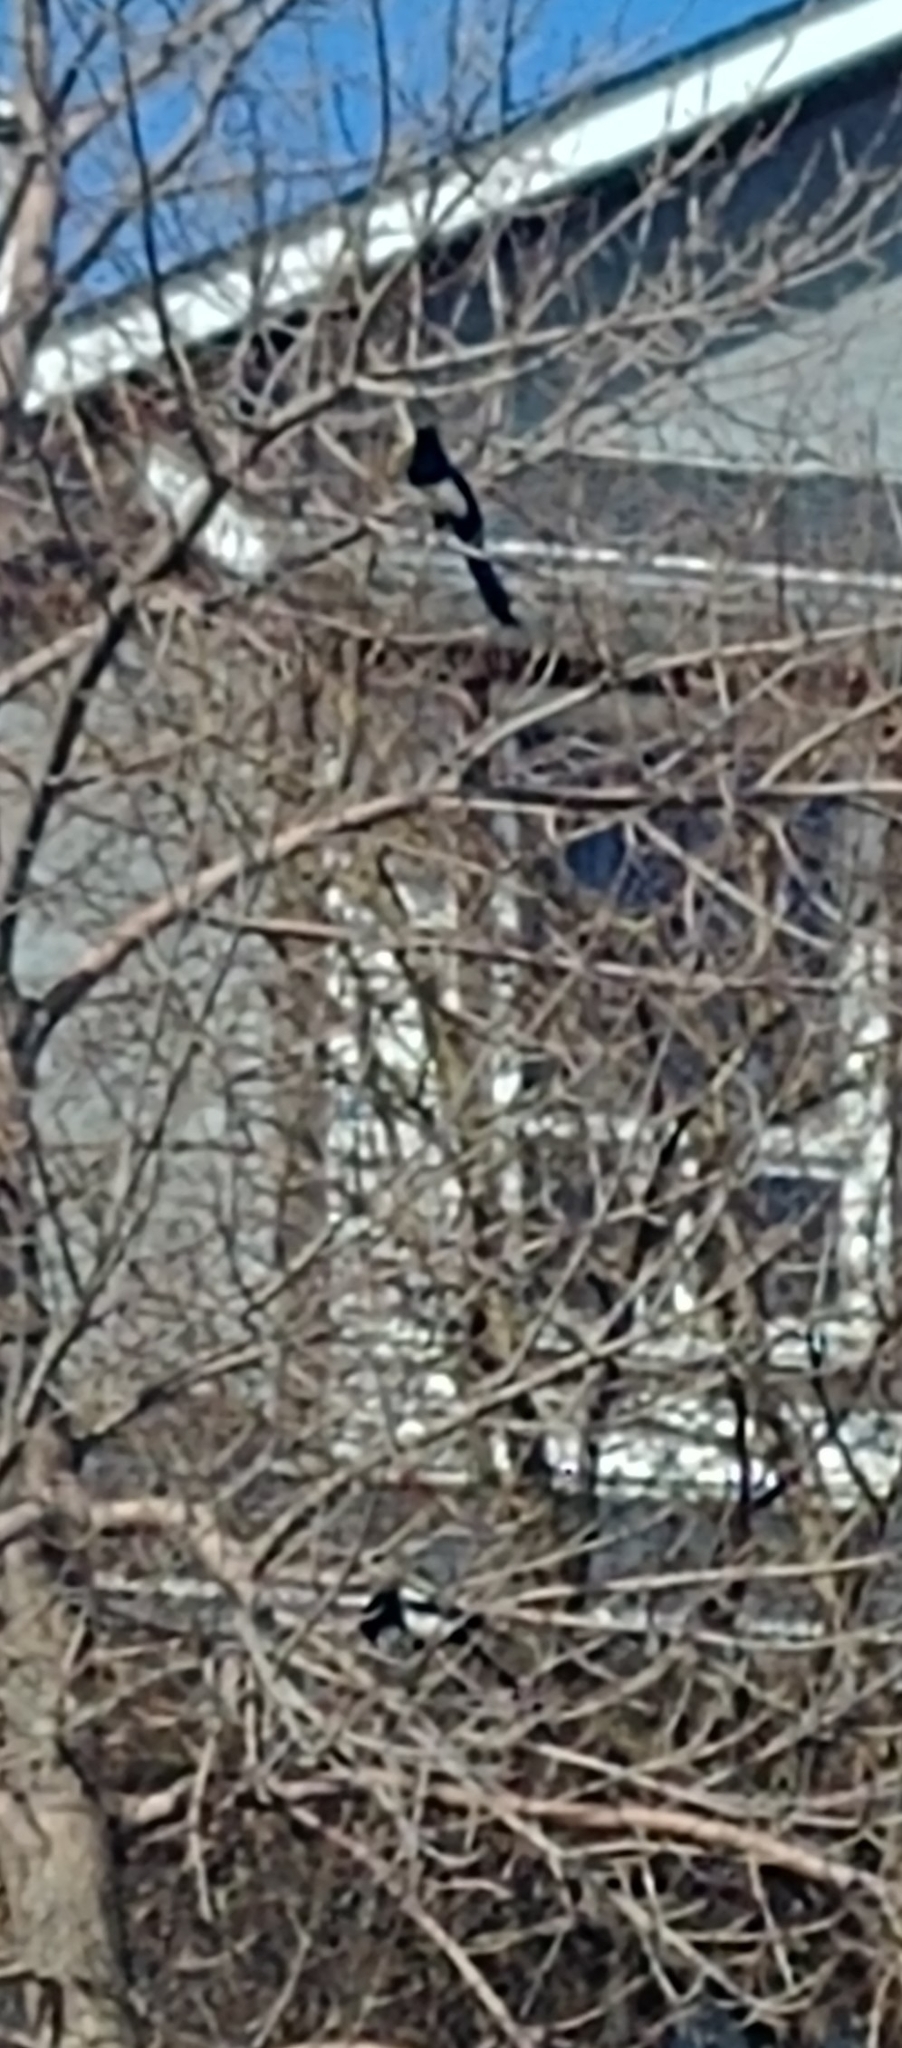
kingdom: Animalia
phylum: Chordata
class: Aves
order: Passeriformes
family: Corvidae
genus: Pica
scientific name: Pica hudsonia
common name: Black-billed magpie
